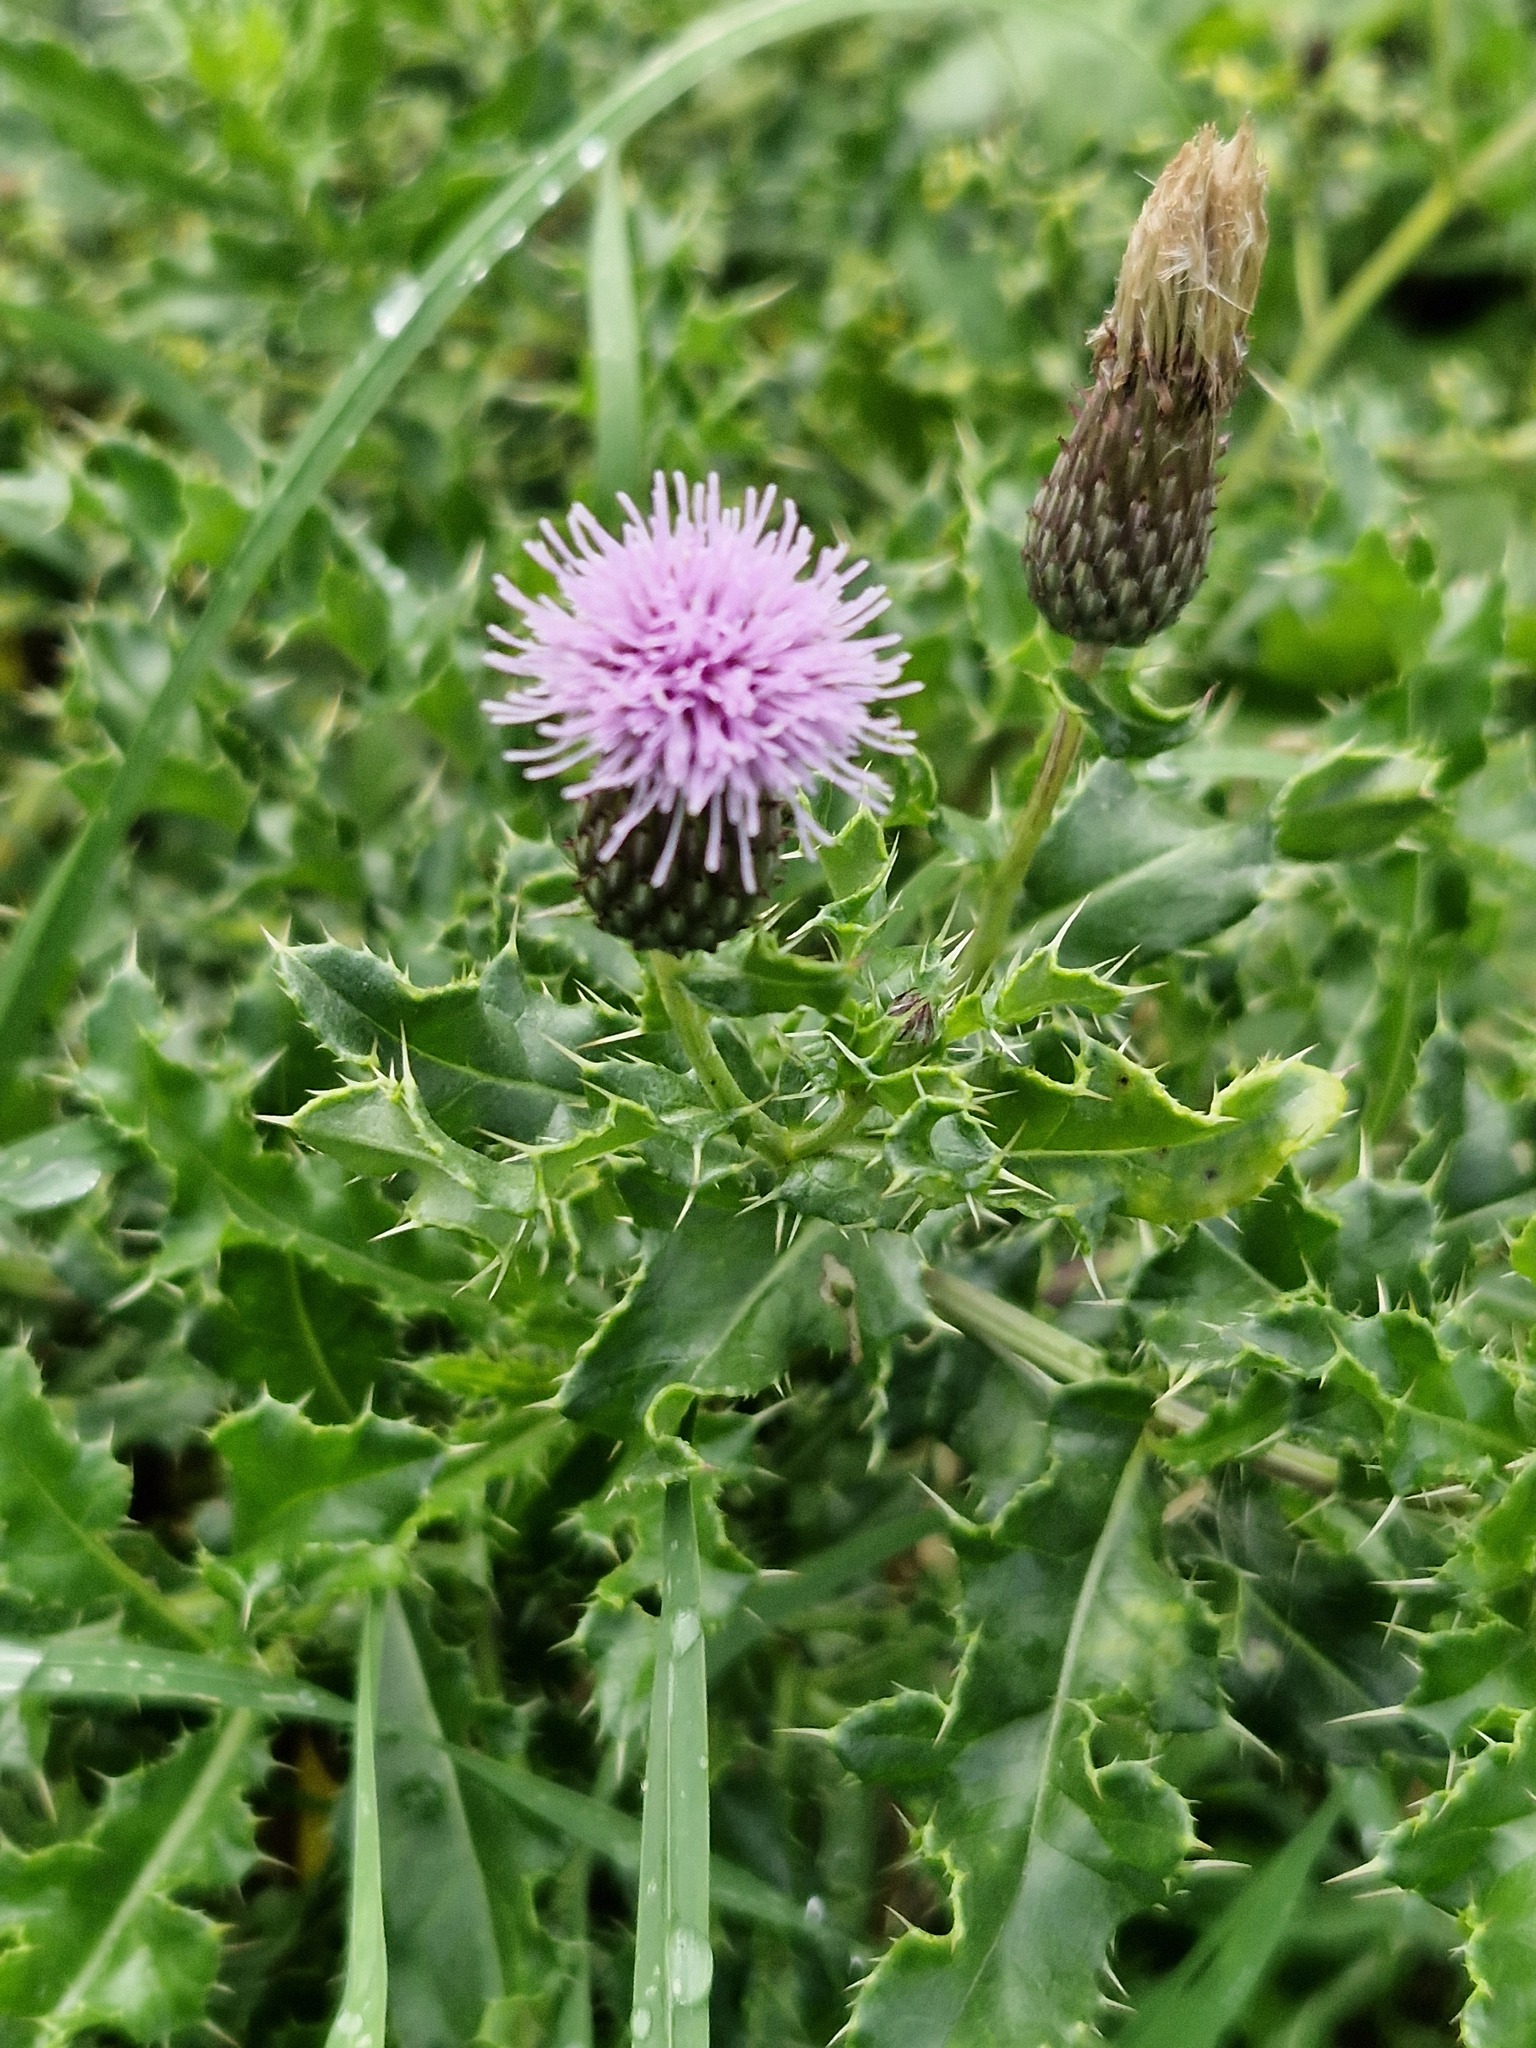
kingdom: Plantae
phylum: Tracheophyta
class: Magnoliopsida
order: Asterales
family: Asteraceae
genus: Cirsium
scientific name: Cirsium arvense
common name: Creeping thistle
